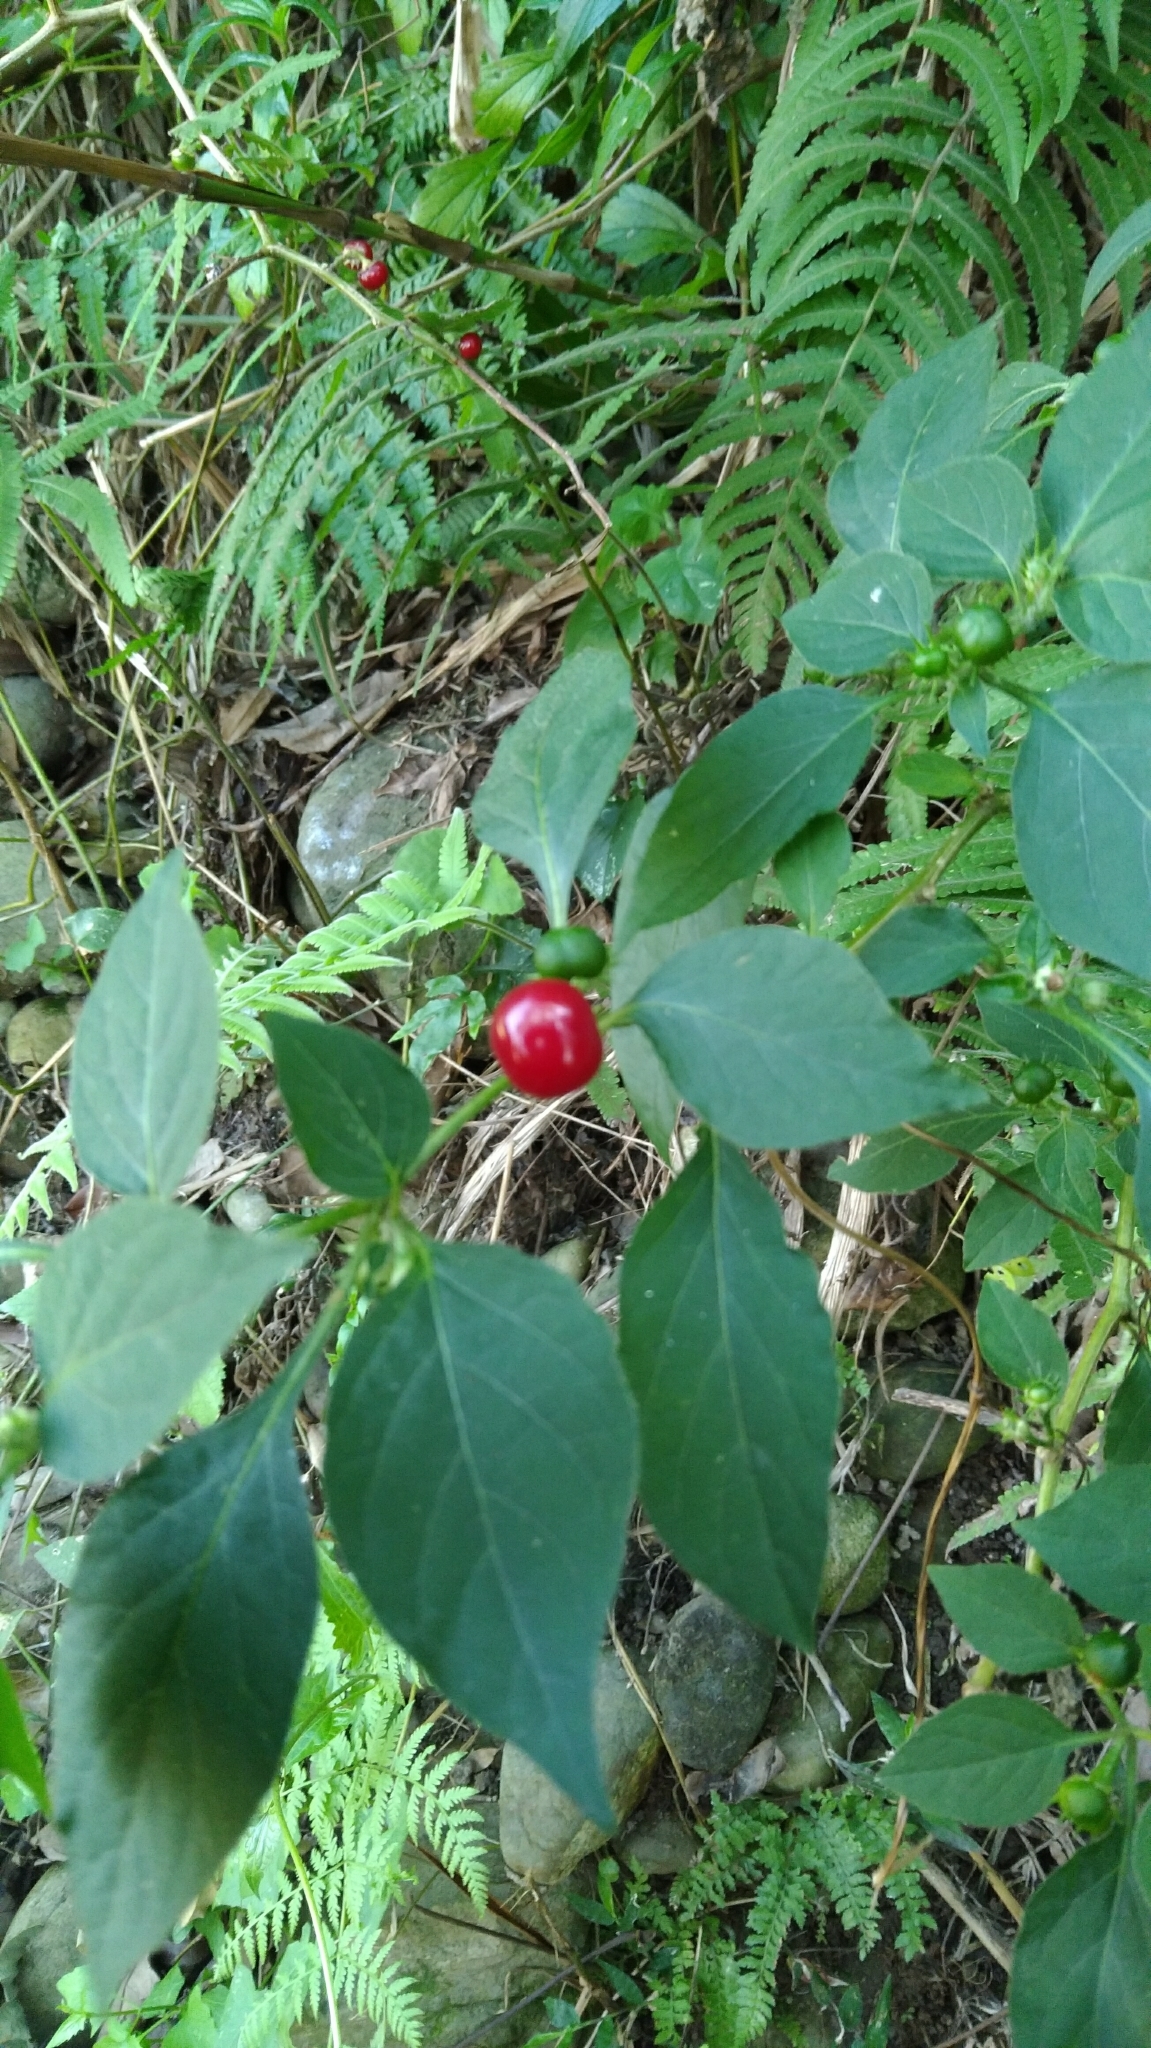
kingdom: Plantae
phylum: Tracheophyta
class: Magnoliopsida
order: Solanales
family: Solanaceae
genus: Lycianthes
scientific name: Lycianthes biflora
